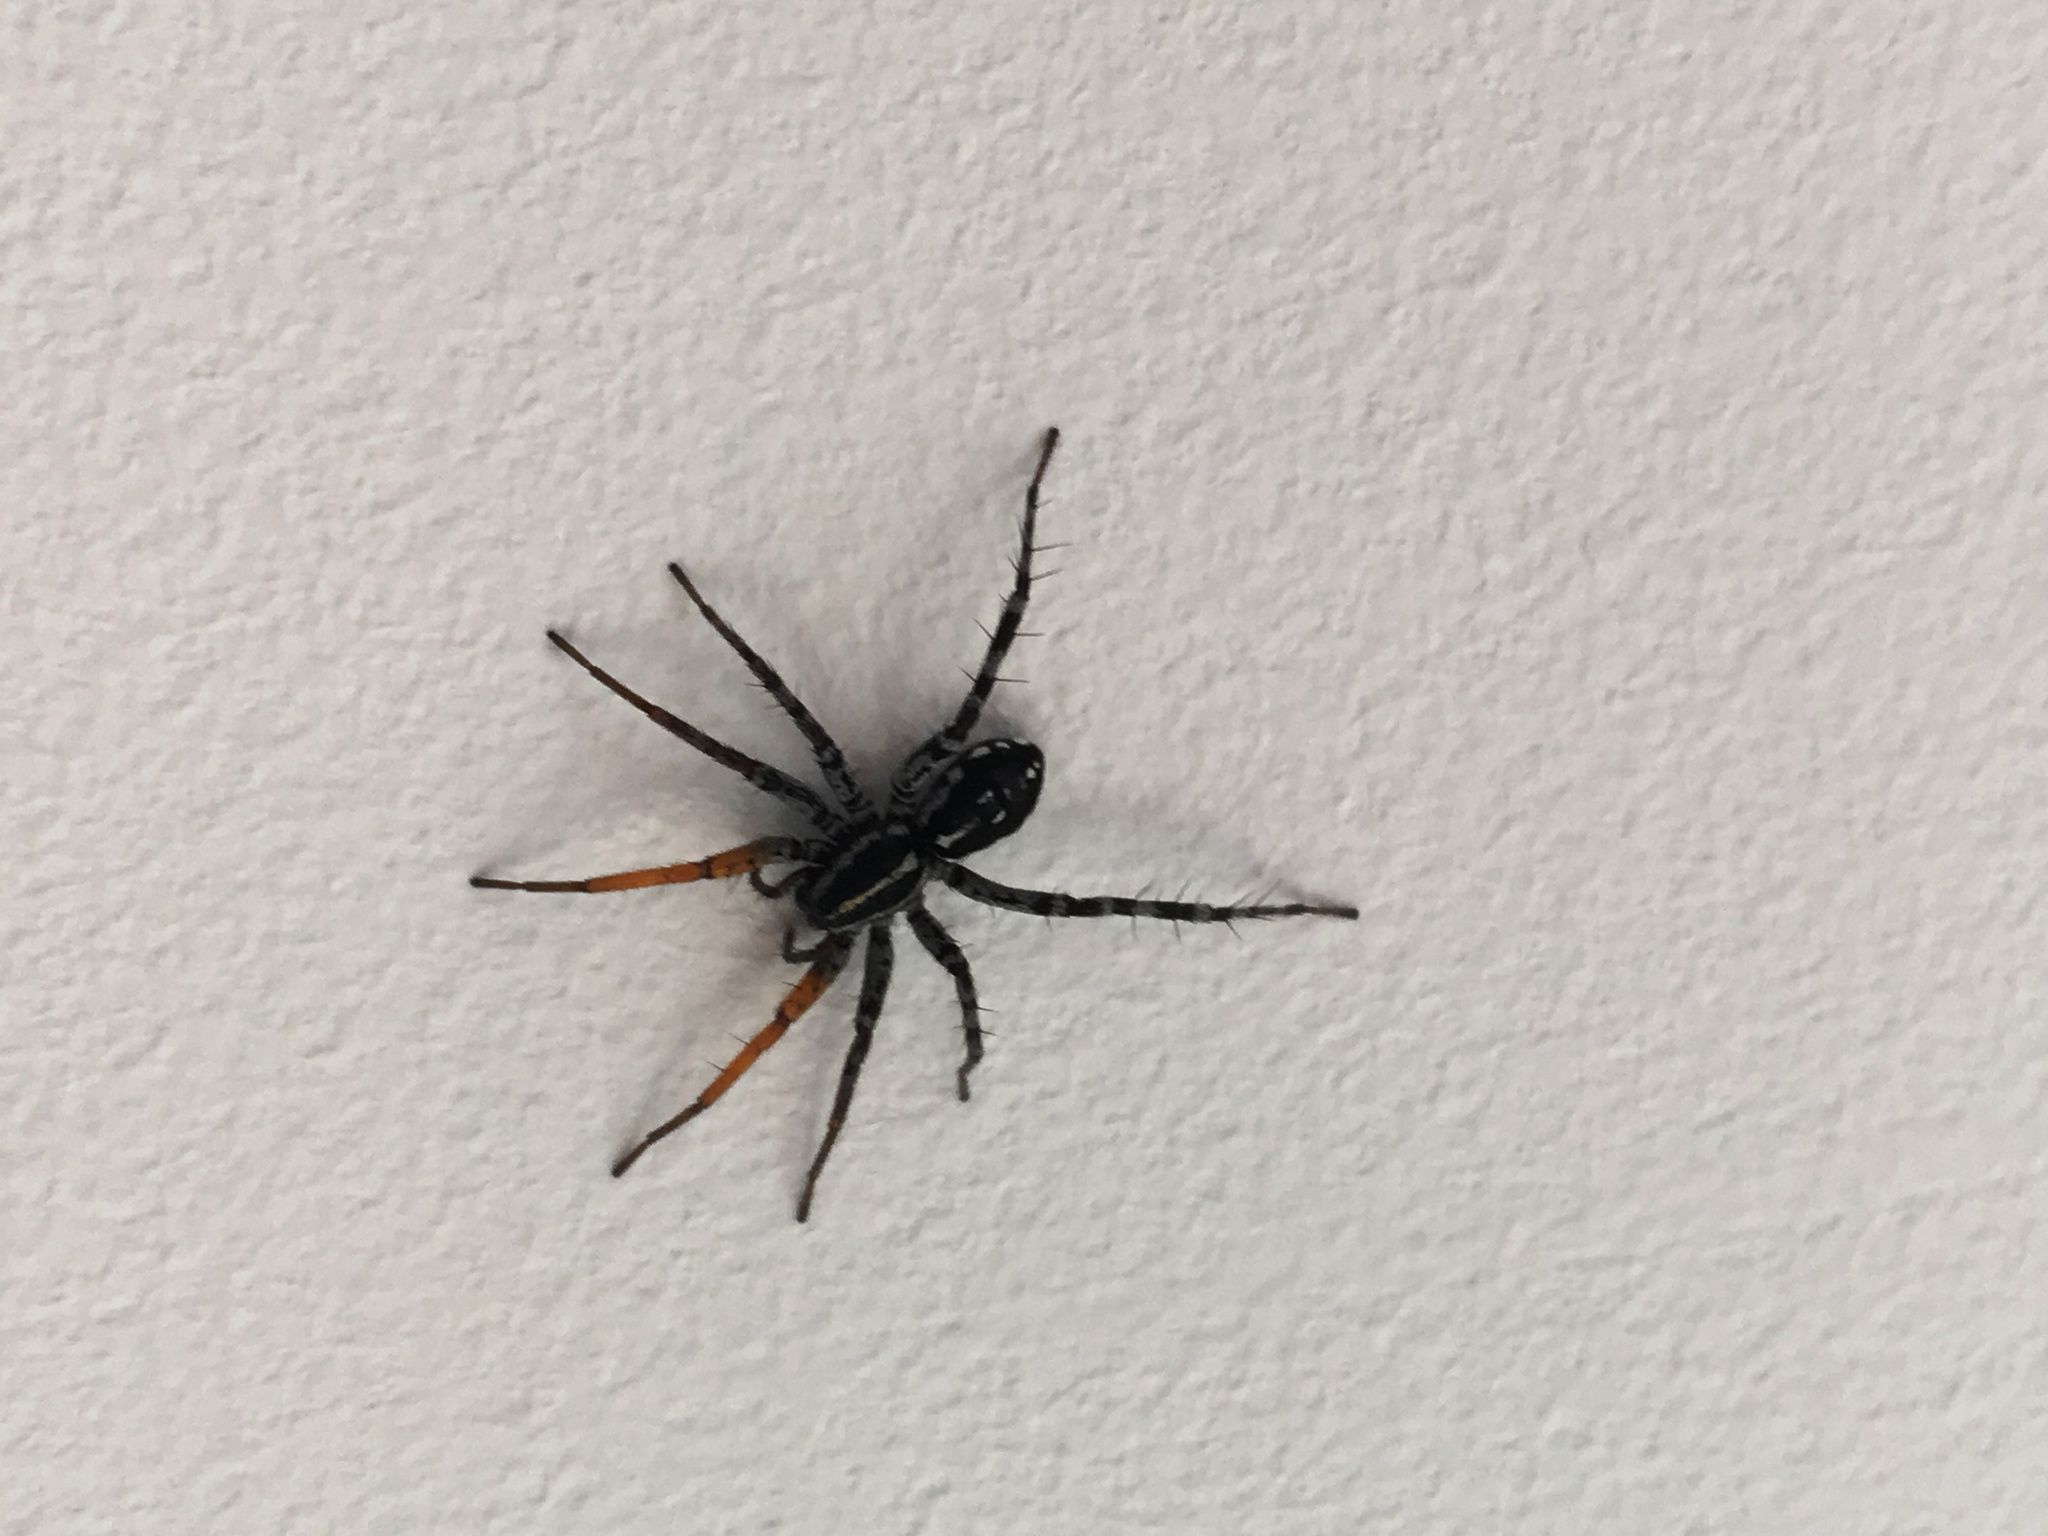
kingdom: Animalia
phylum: Arthropoda
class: Arachnida
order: Araneae
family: Corinnidae
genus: Nyssus
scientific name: Nyssus coloripes
